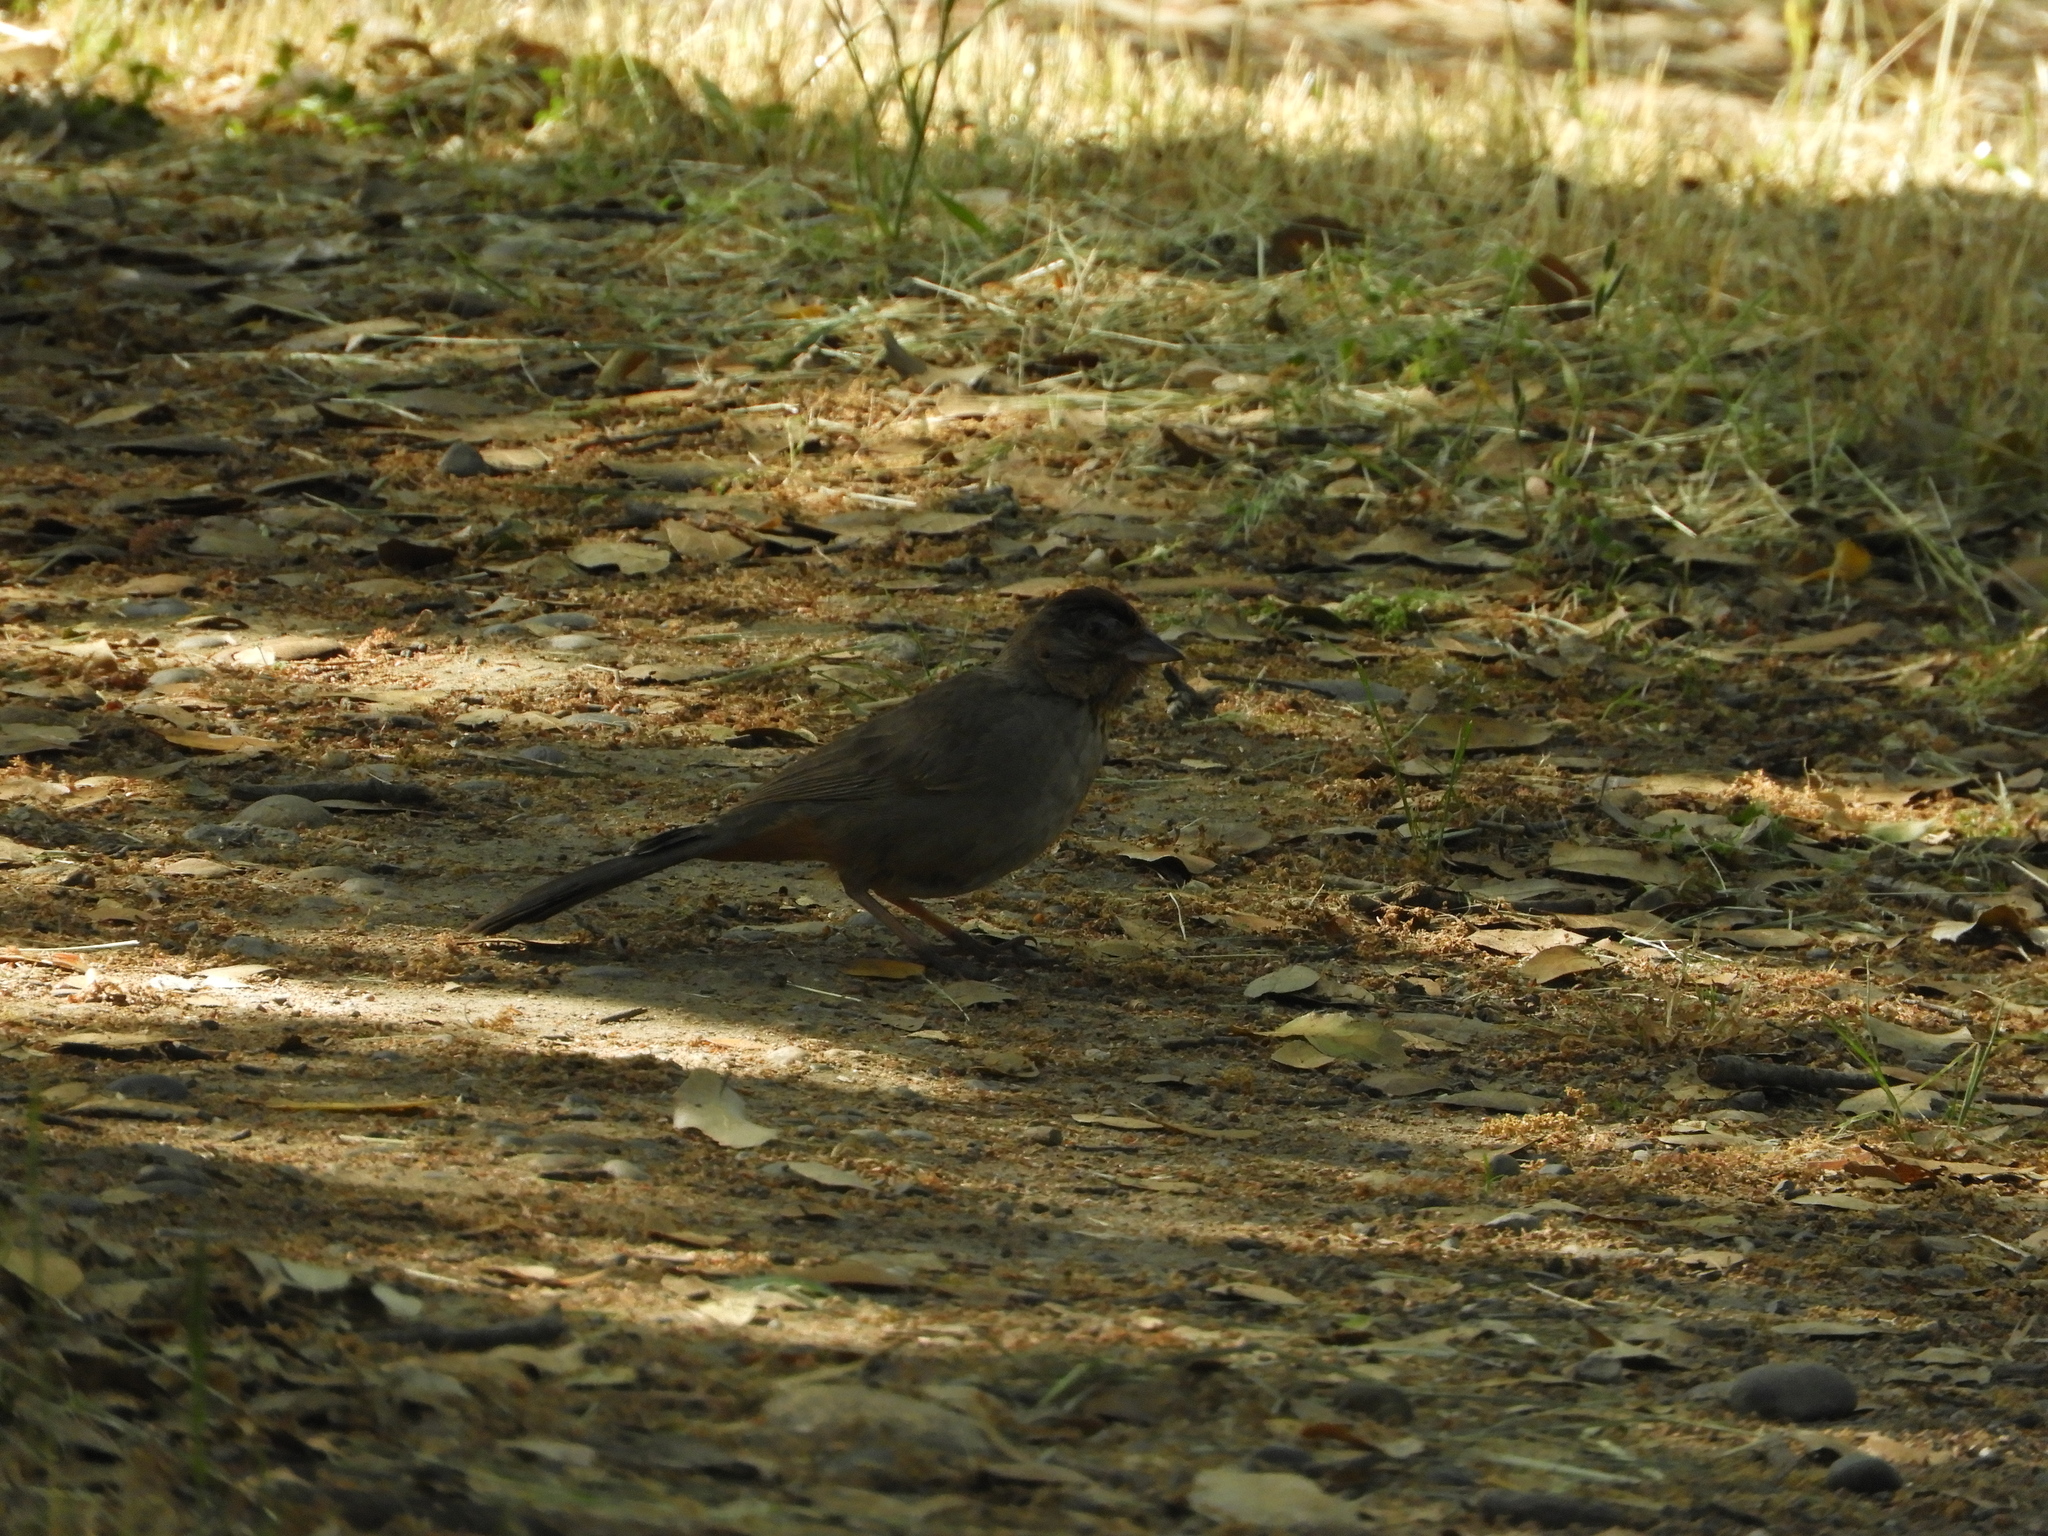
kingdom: Animalia
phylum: Chordata
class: Aves
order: Passeriformes
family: Passerellidae
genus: Melozone
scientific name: Melozone crissalis
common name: California towhee
